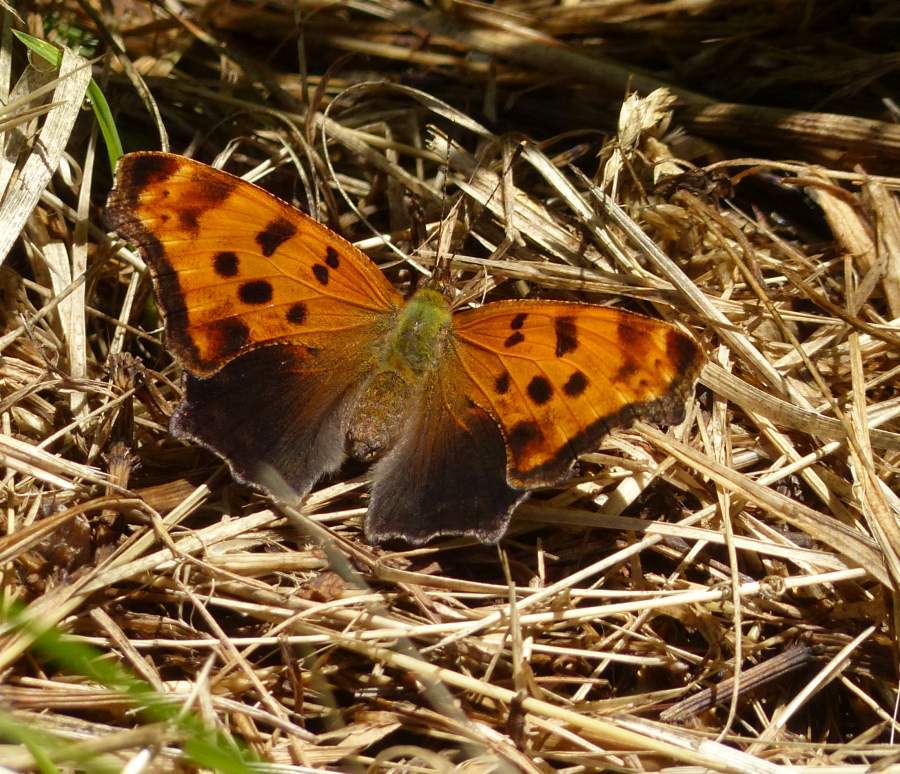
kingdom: Animalia
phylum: Arthropoda
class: Insecta
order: Lepidoptera
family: Nymphalidae
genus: Polygonia
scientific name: Polygonia comma
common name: Eastern comma
